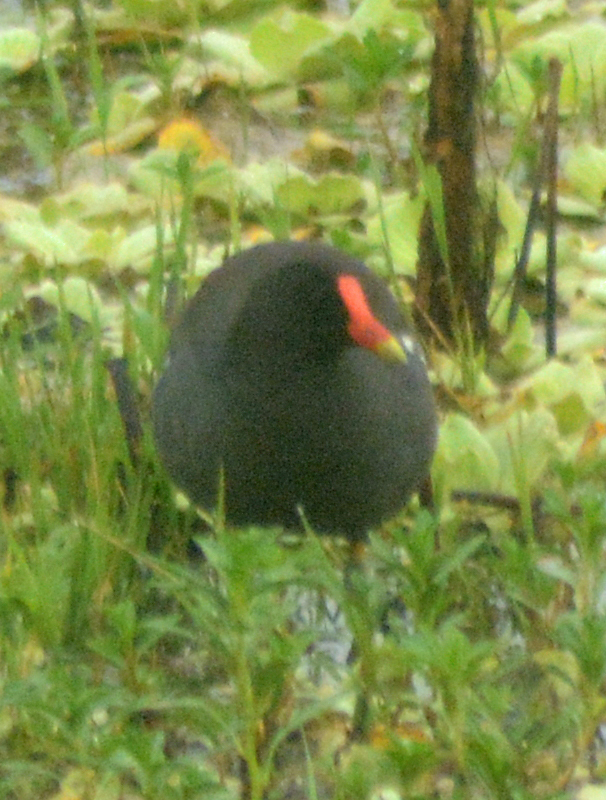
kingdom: Animalia
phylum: Chordata
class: Aves
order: Gruiformes
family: Rallidae
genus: Gallinula
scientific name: Gallinula chloropus
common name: Common moorhen
